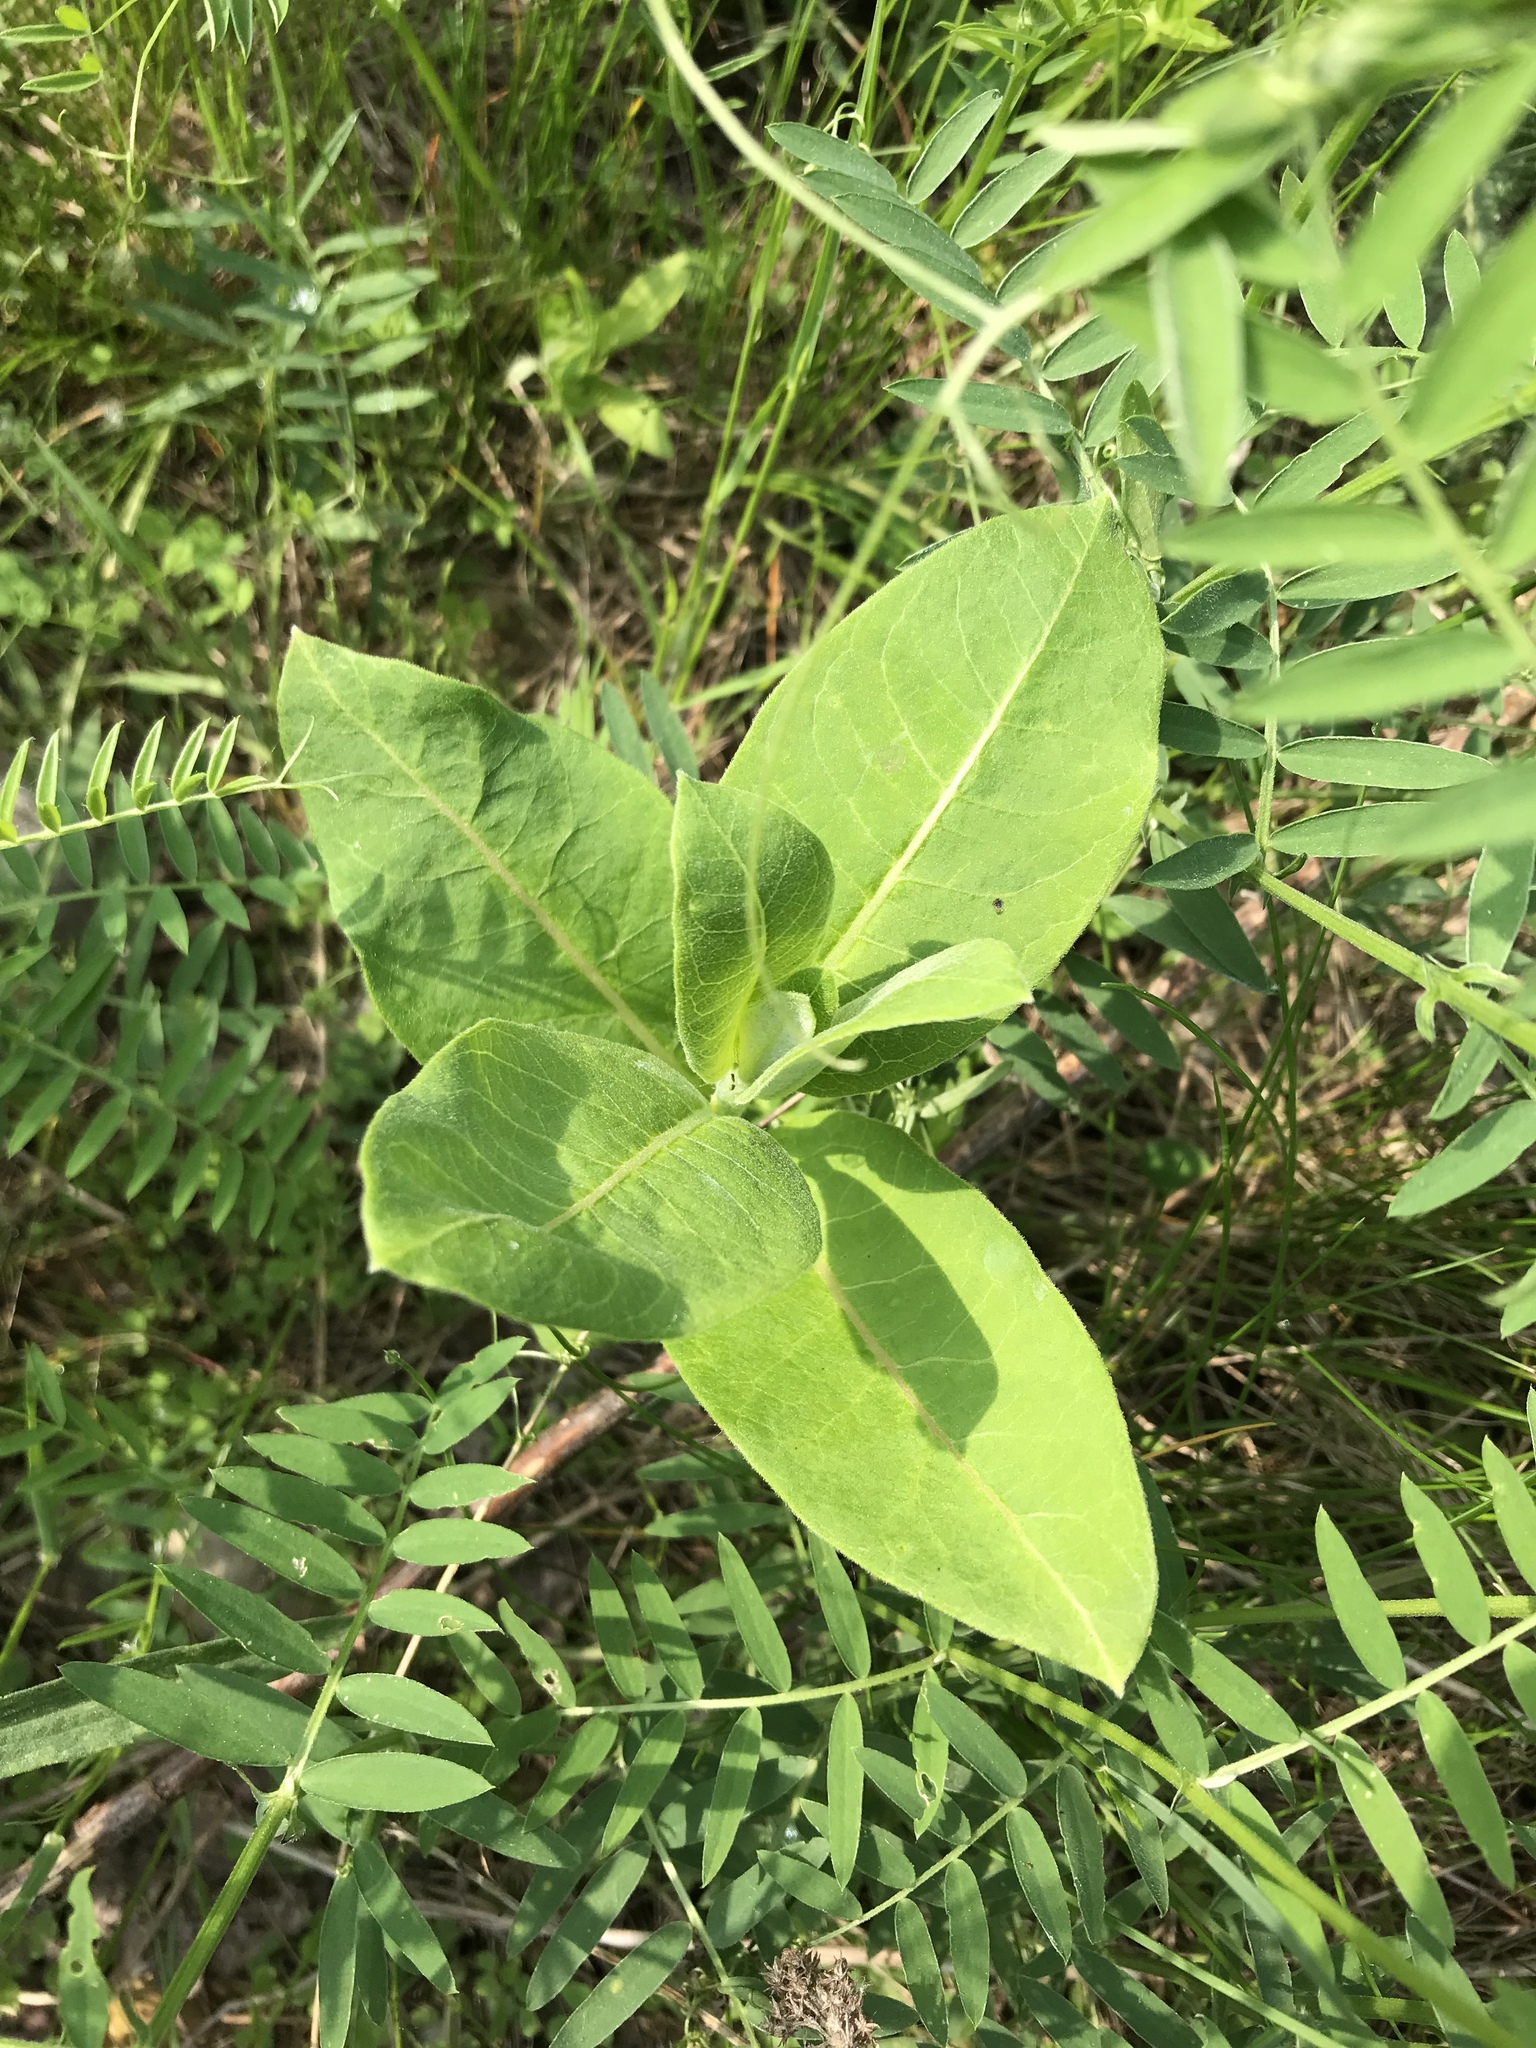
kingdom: Plantae
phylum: Tracheophyta
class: Magnoliopsida
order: Gentianales
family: Apocynaceae
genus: Asclepias
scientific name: Asclepias syriaca
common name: Common milkweed
